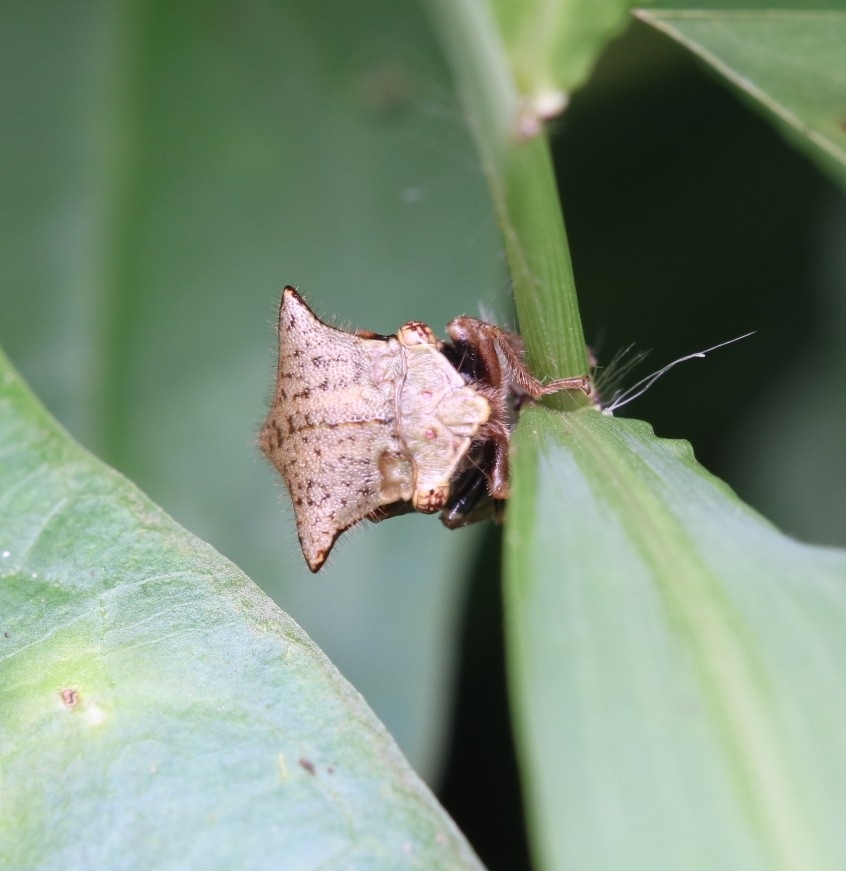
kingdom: Animalia
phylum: Arthropoda
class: Insecta
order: Hemiptera
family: Membracidae
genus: Stictocephala
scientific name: Stictocephala diceros
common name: Two-horned treehopper
